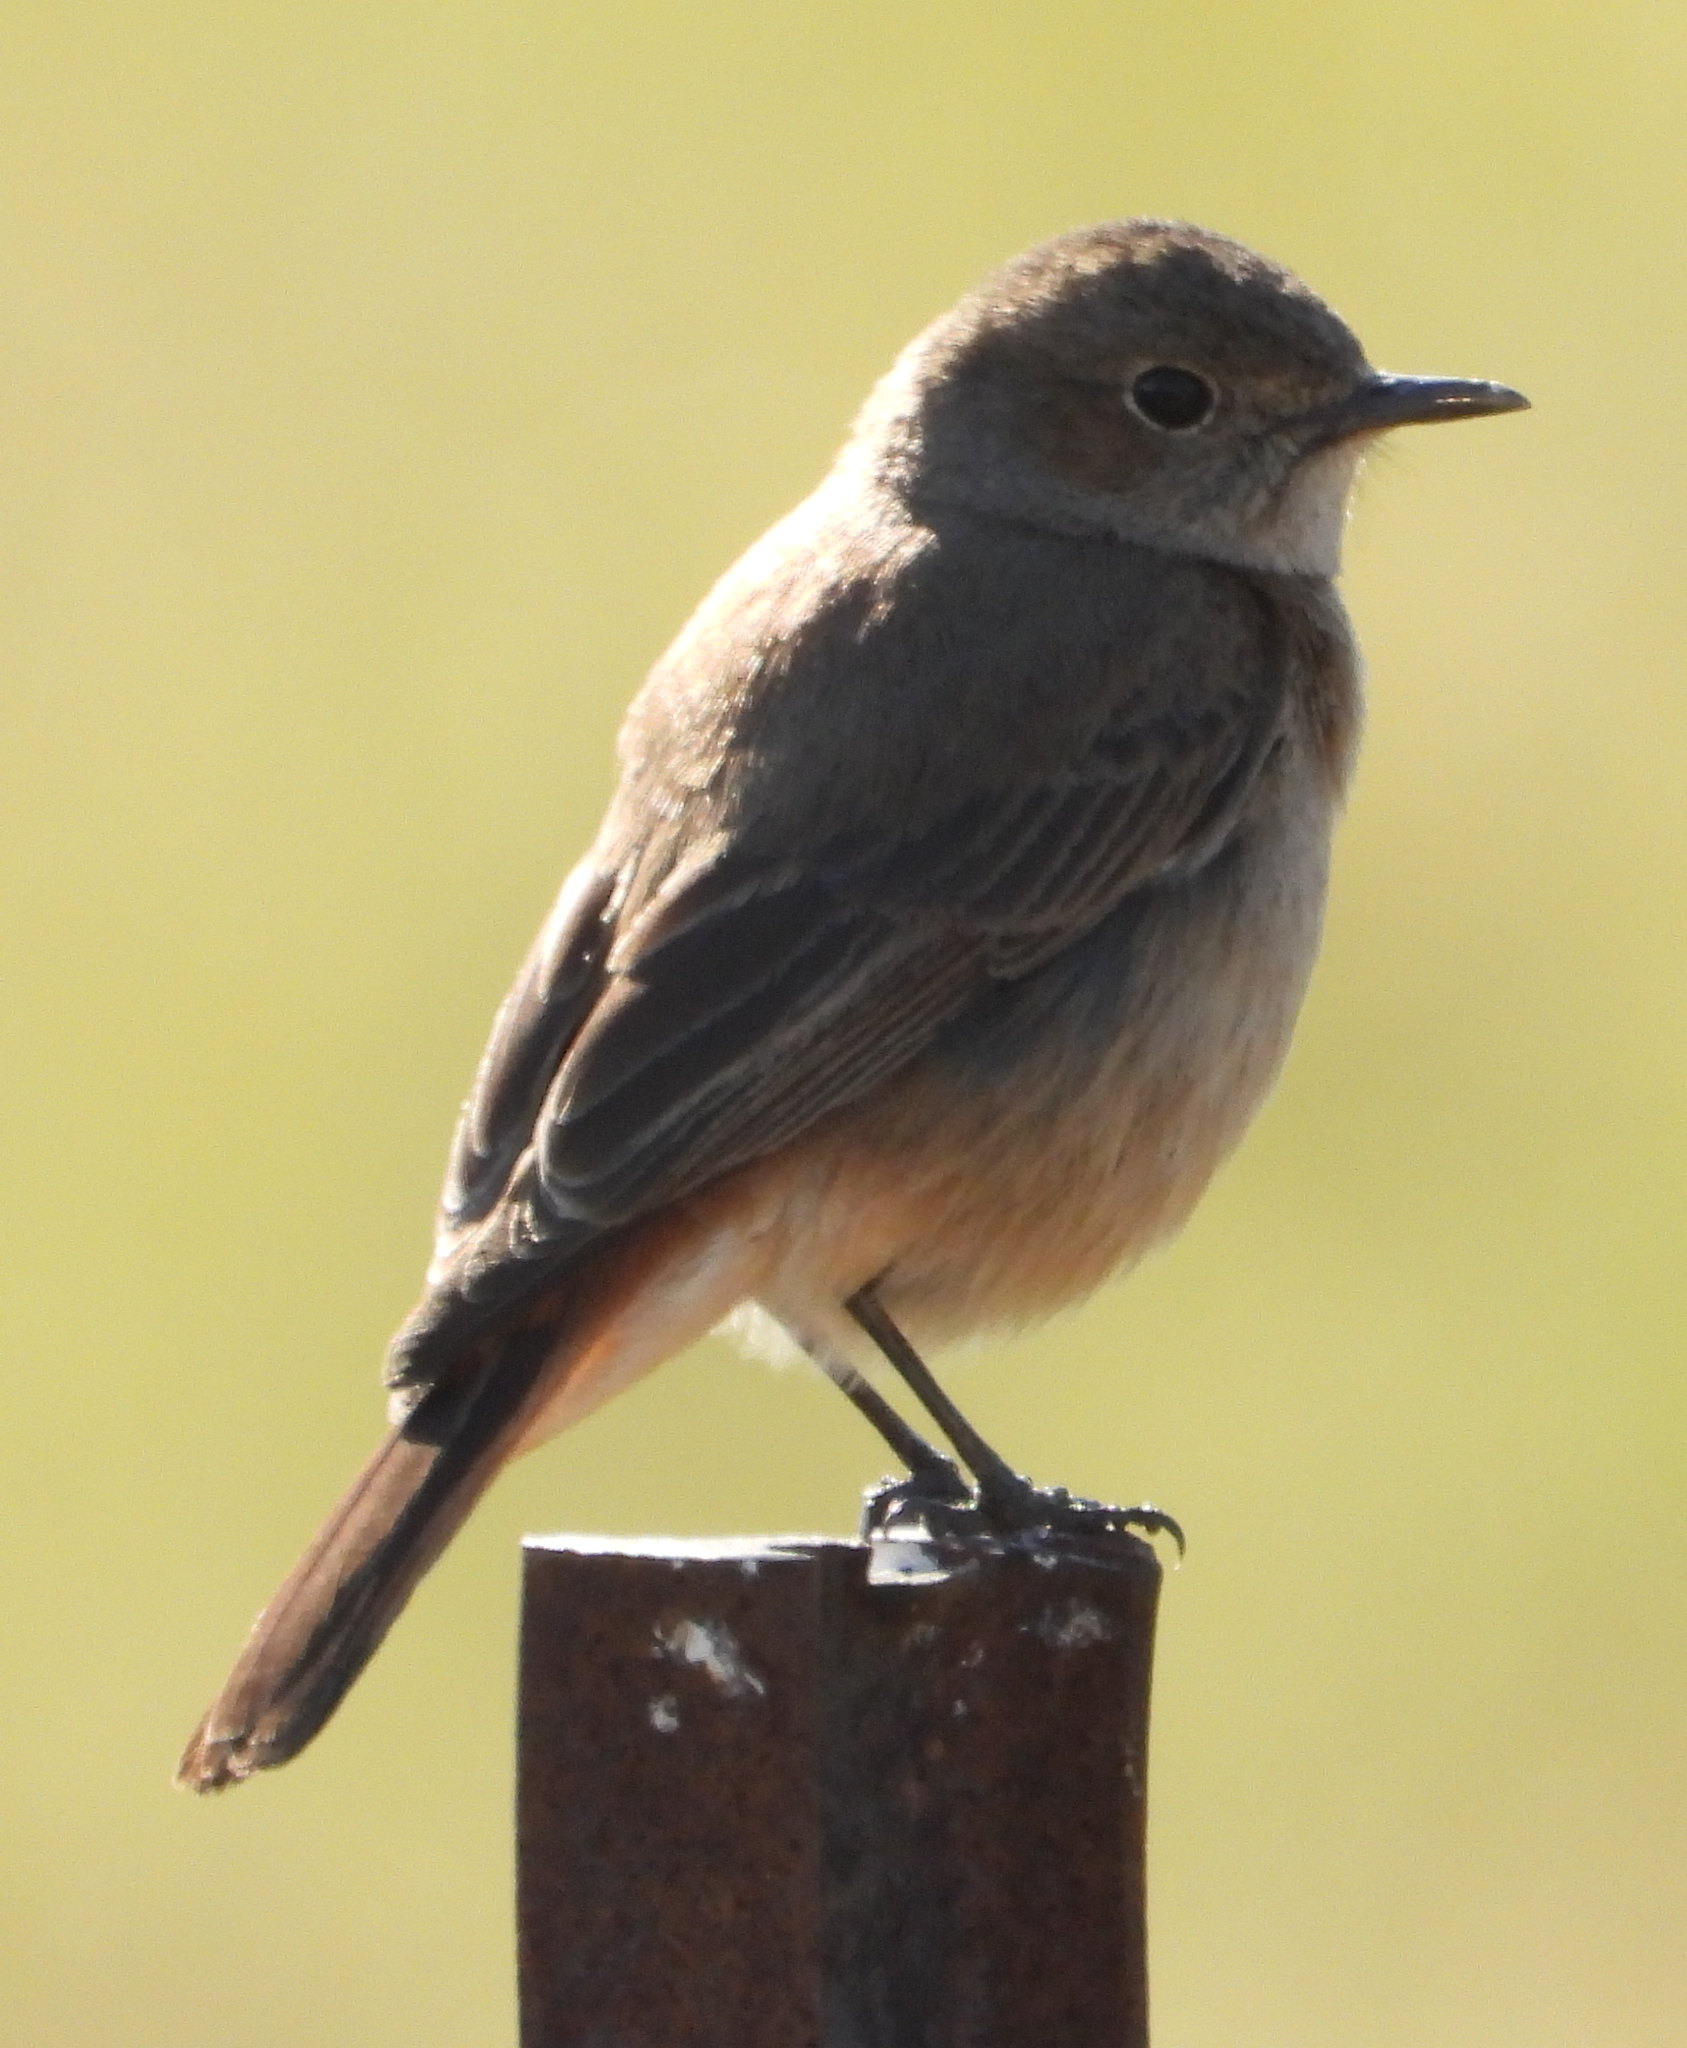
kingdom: Animalia
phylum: Chordata
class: Aves
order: Passeriformes
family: Muscicapidae
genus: Oenanthe
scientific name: Oenanthe familiaris
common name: Familiar chat
